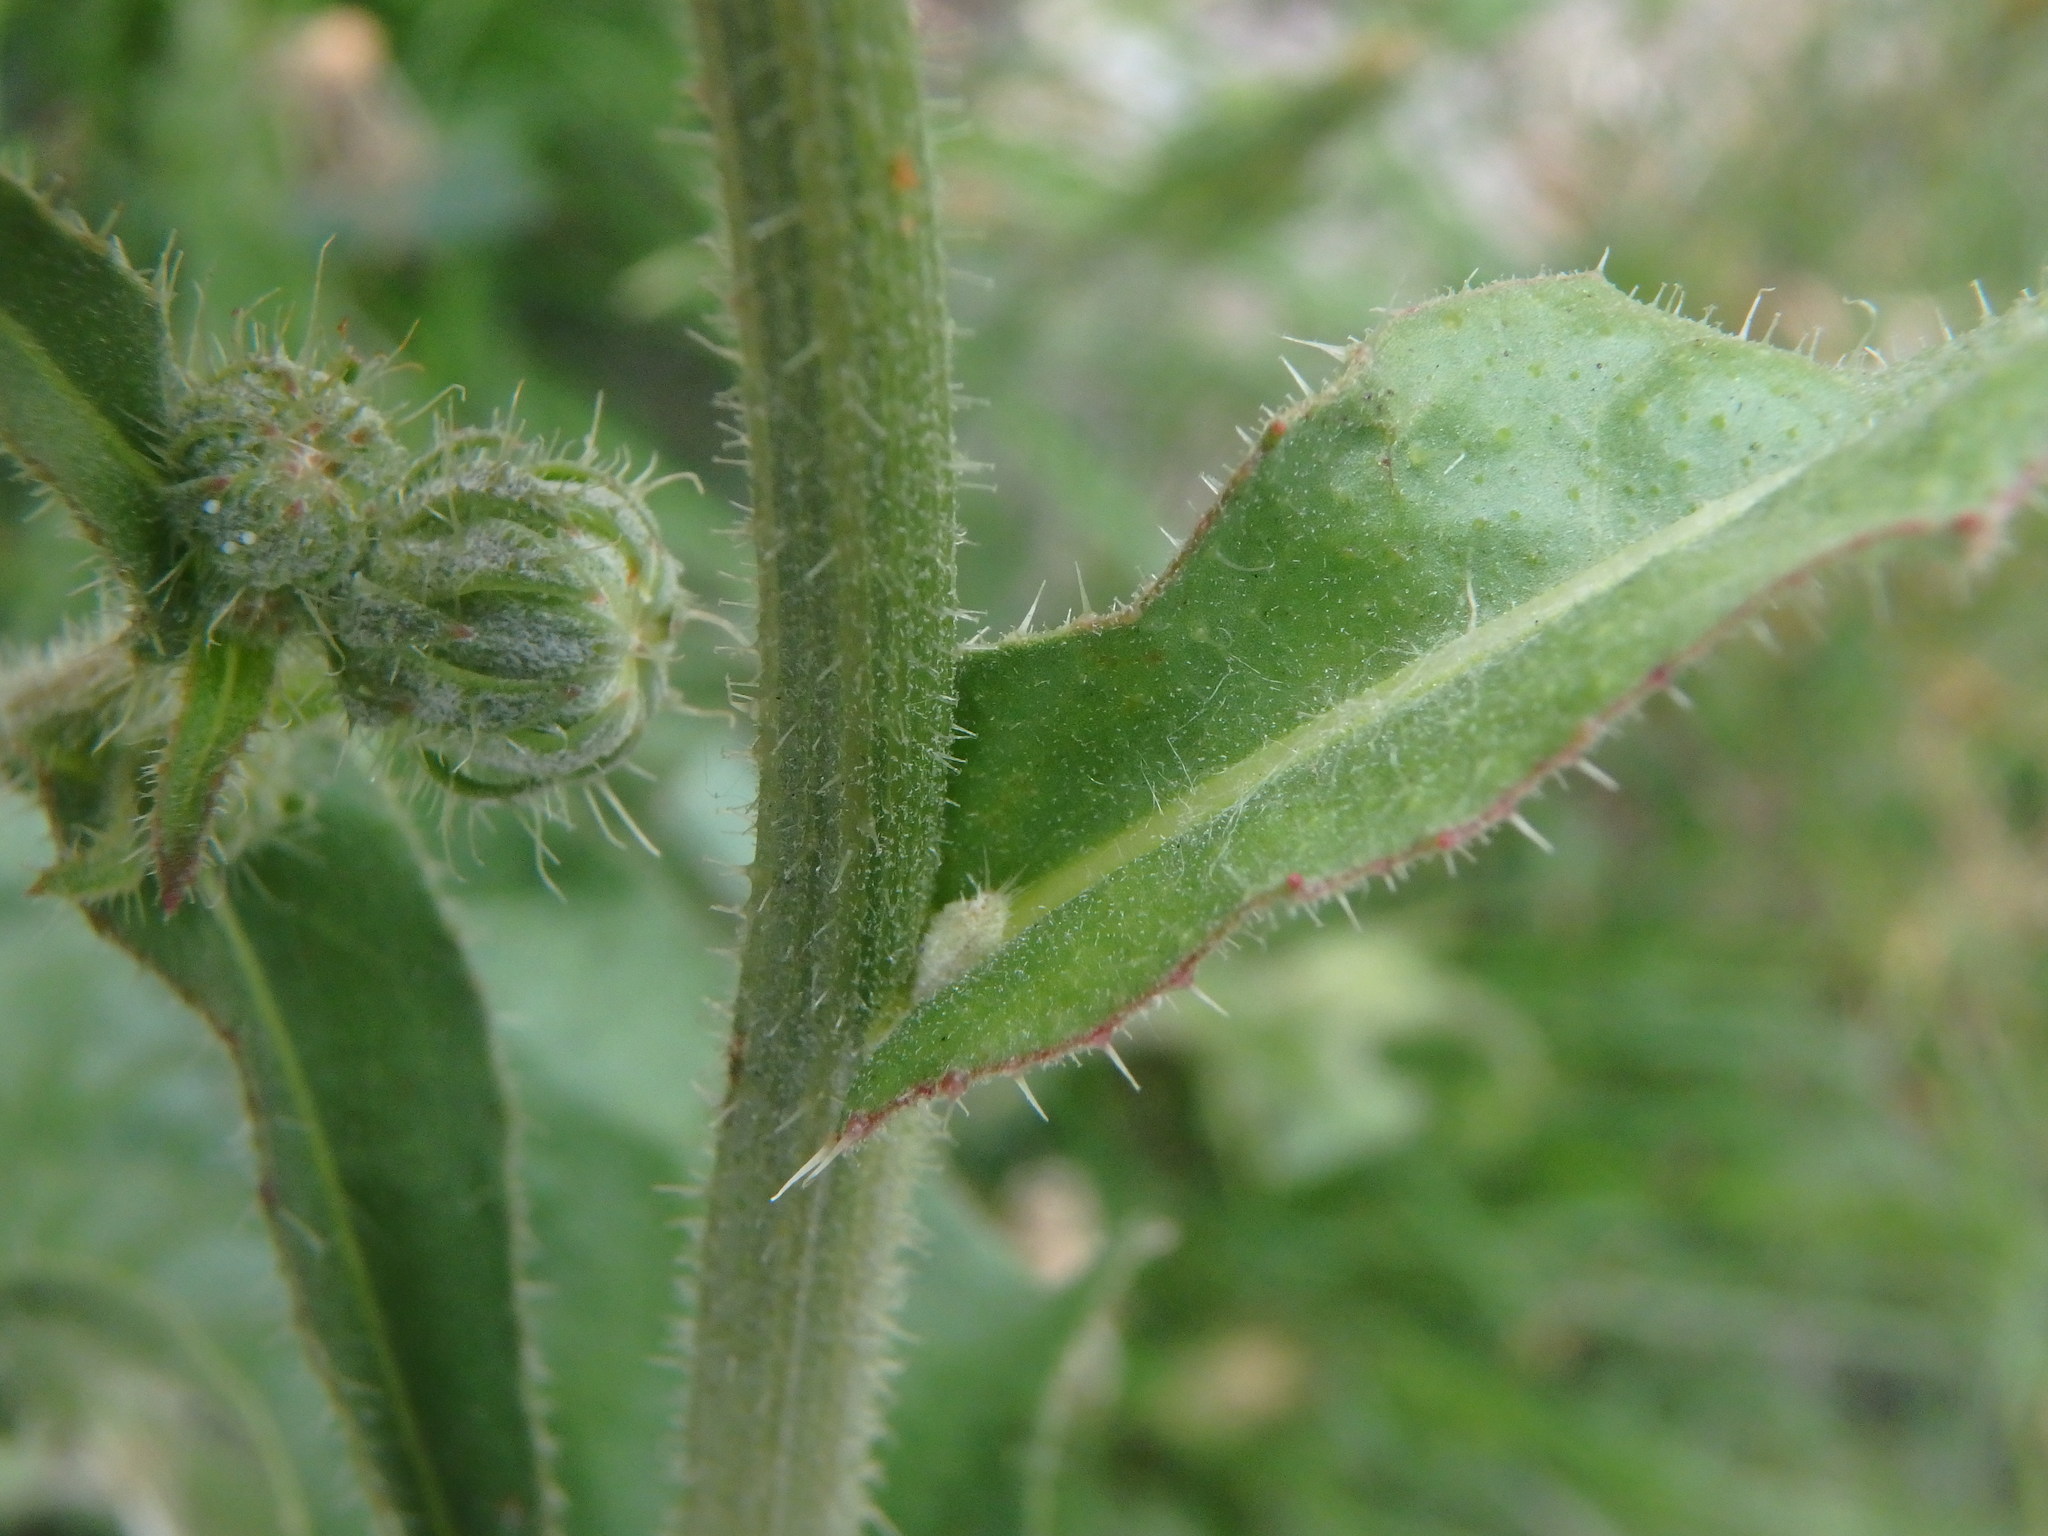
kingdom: Plantae
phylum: Tracheophyta
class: Magnoliopsida
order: Asterales
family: Asteraceae
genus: Picris
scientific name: Picris hieracioides
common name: Hawkweed oxtongue
